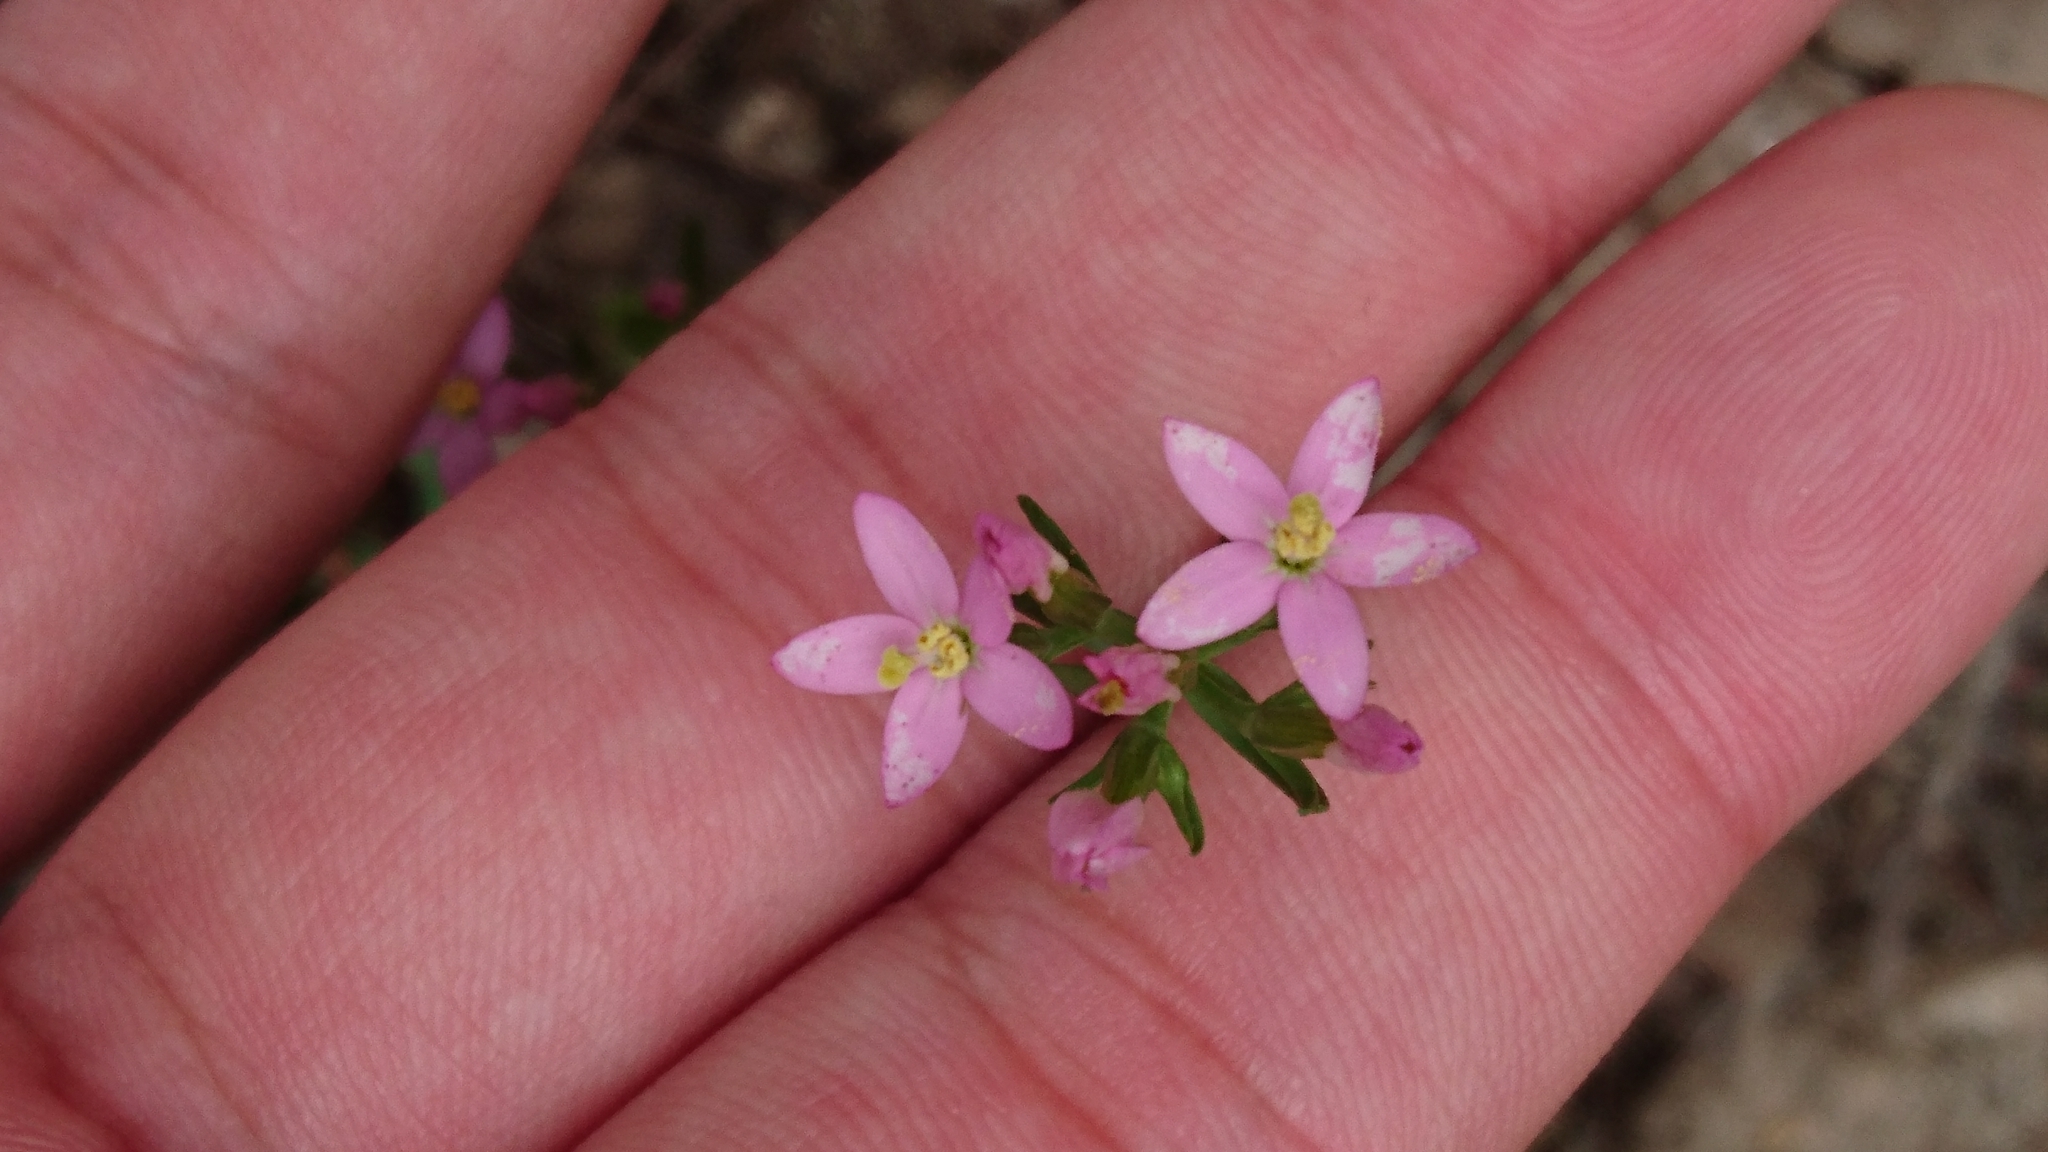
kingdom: Plantae
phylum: Tracheophyta
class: Magnoliopsida
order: Gentianales
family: Gentianaceae
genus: Centaurium
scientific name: Centaurium erythraea
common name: Common centaury
